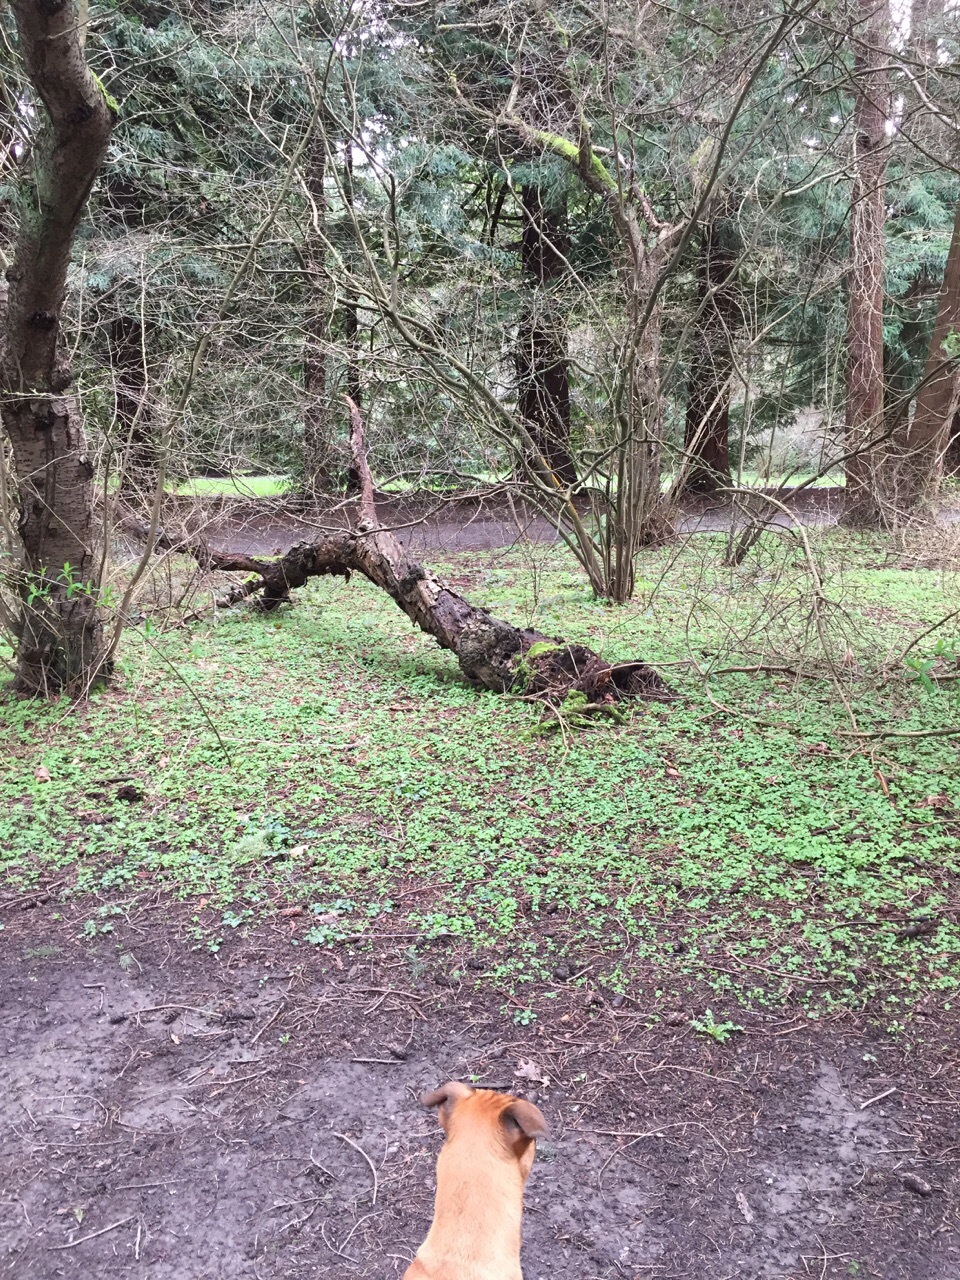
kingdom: Plantae
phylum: Tracheophyta
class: Magnoliopsida
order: Apiales
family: Apiaceae
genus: Sanicula
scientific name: Sanicula crassicaulis
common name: Western snakeroot
